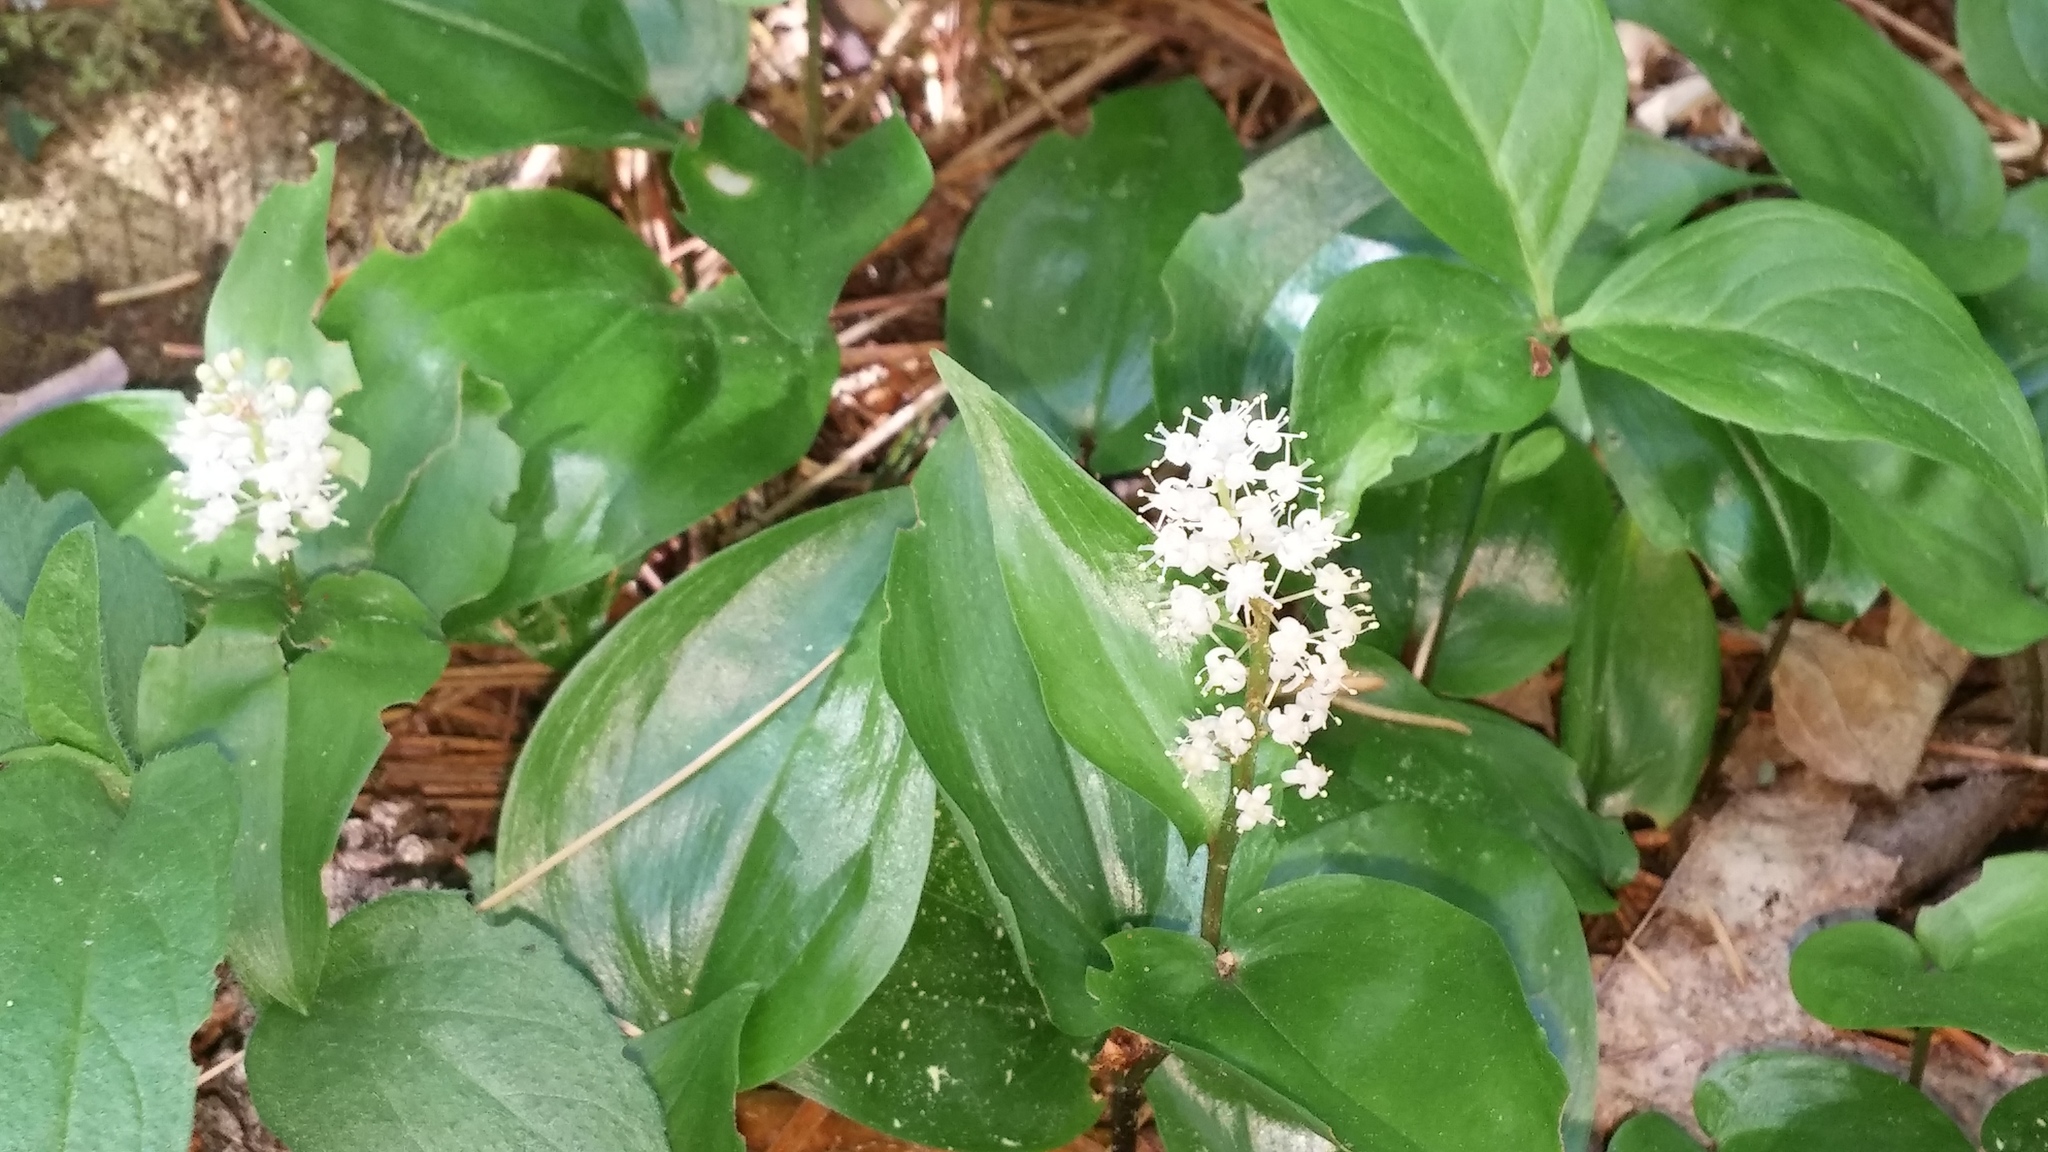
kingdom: Plantae
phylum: Tracheophyta
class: Liliopsida
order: Asparagales
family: Asparagaceae
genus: Maianthemum
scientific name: Maianthemum canadense
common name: False lily-of-the-valley
